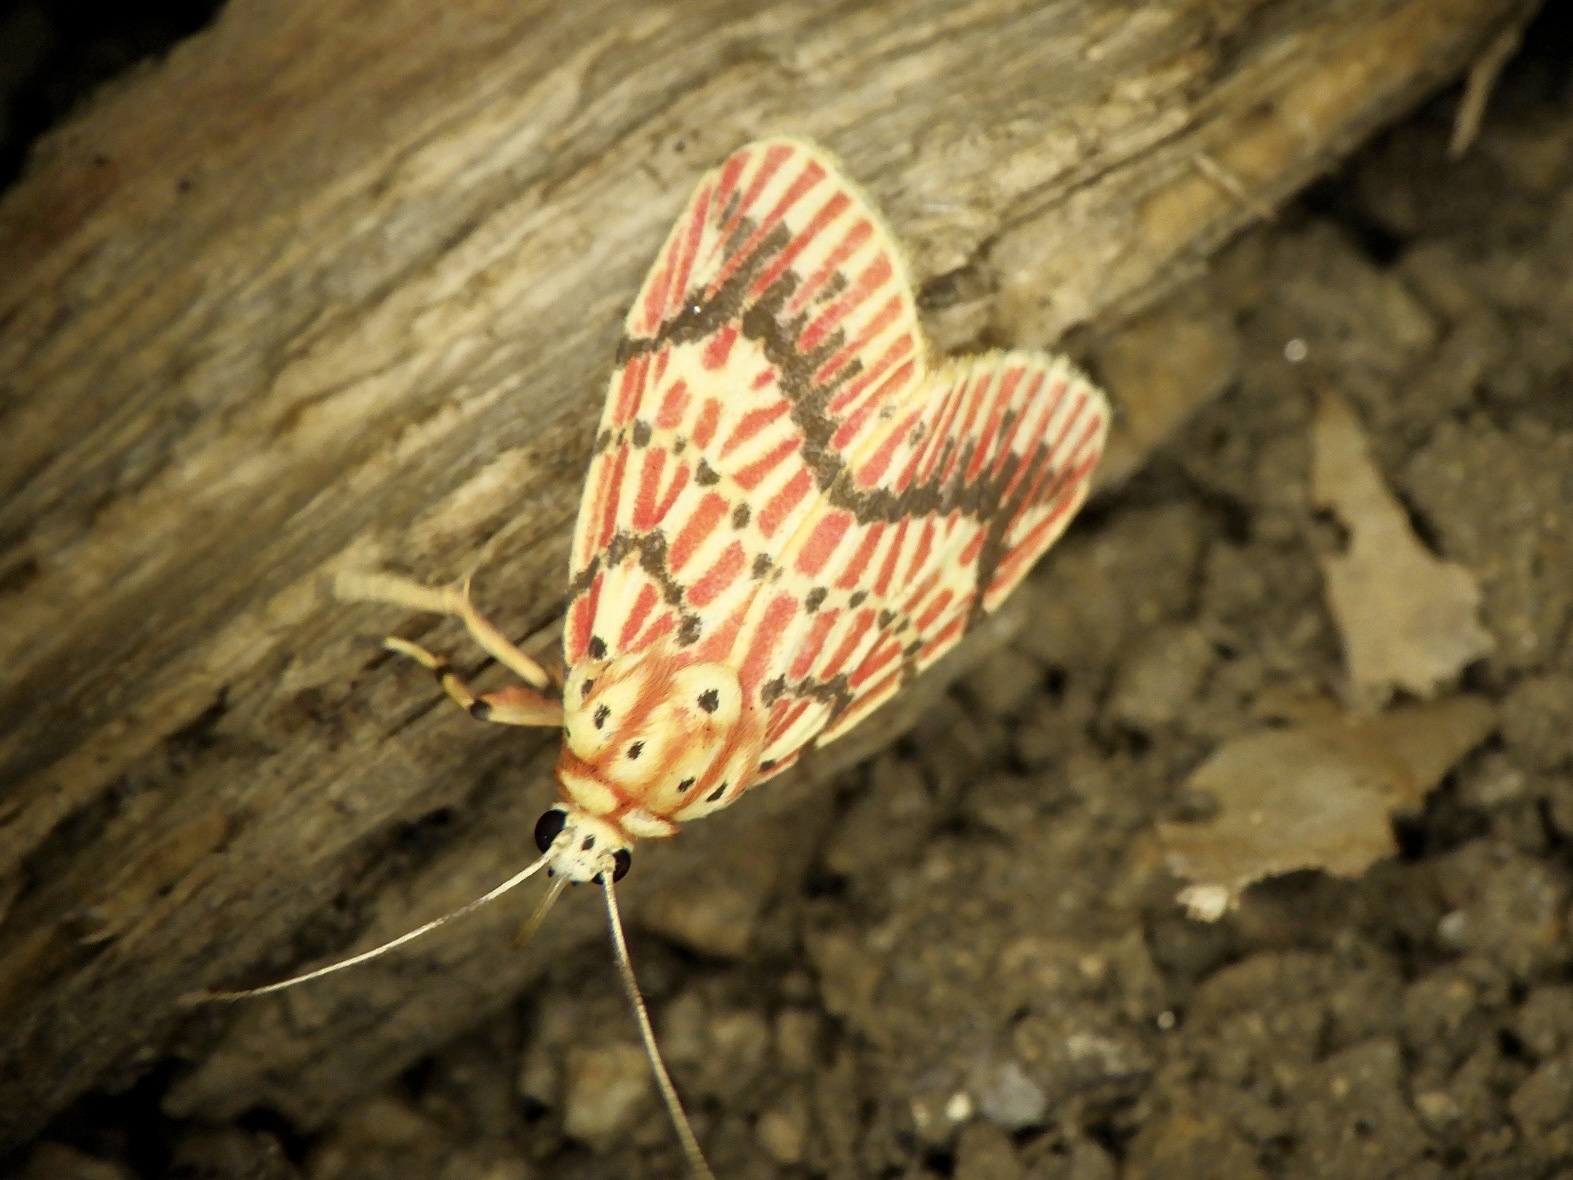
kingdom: Animalia
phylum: Arthropoda
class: Insecta
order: Lepidoptera
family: Erebidae
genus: Barsine
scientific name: Barsine striata
